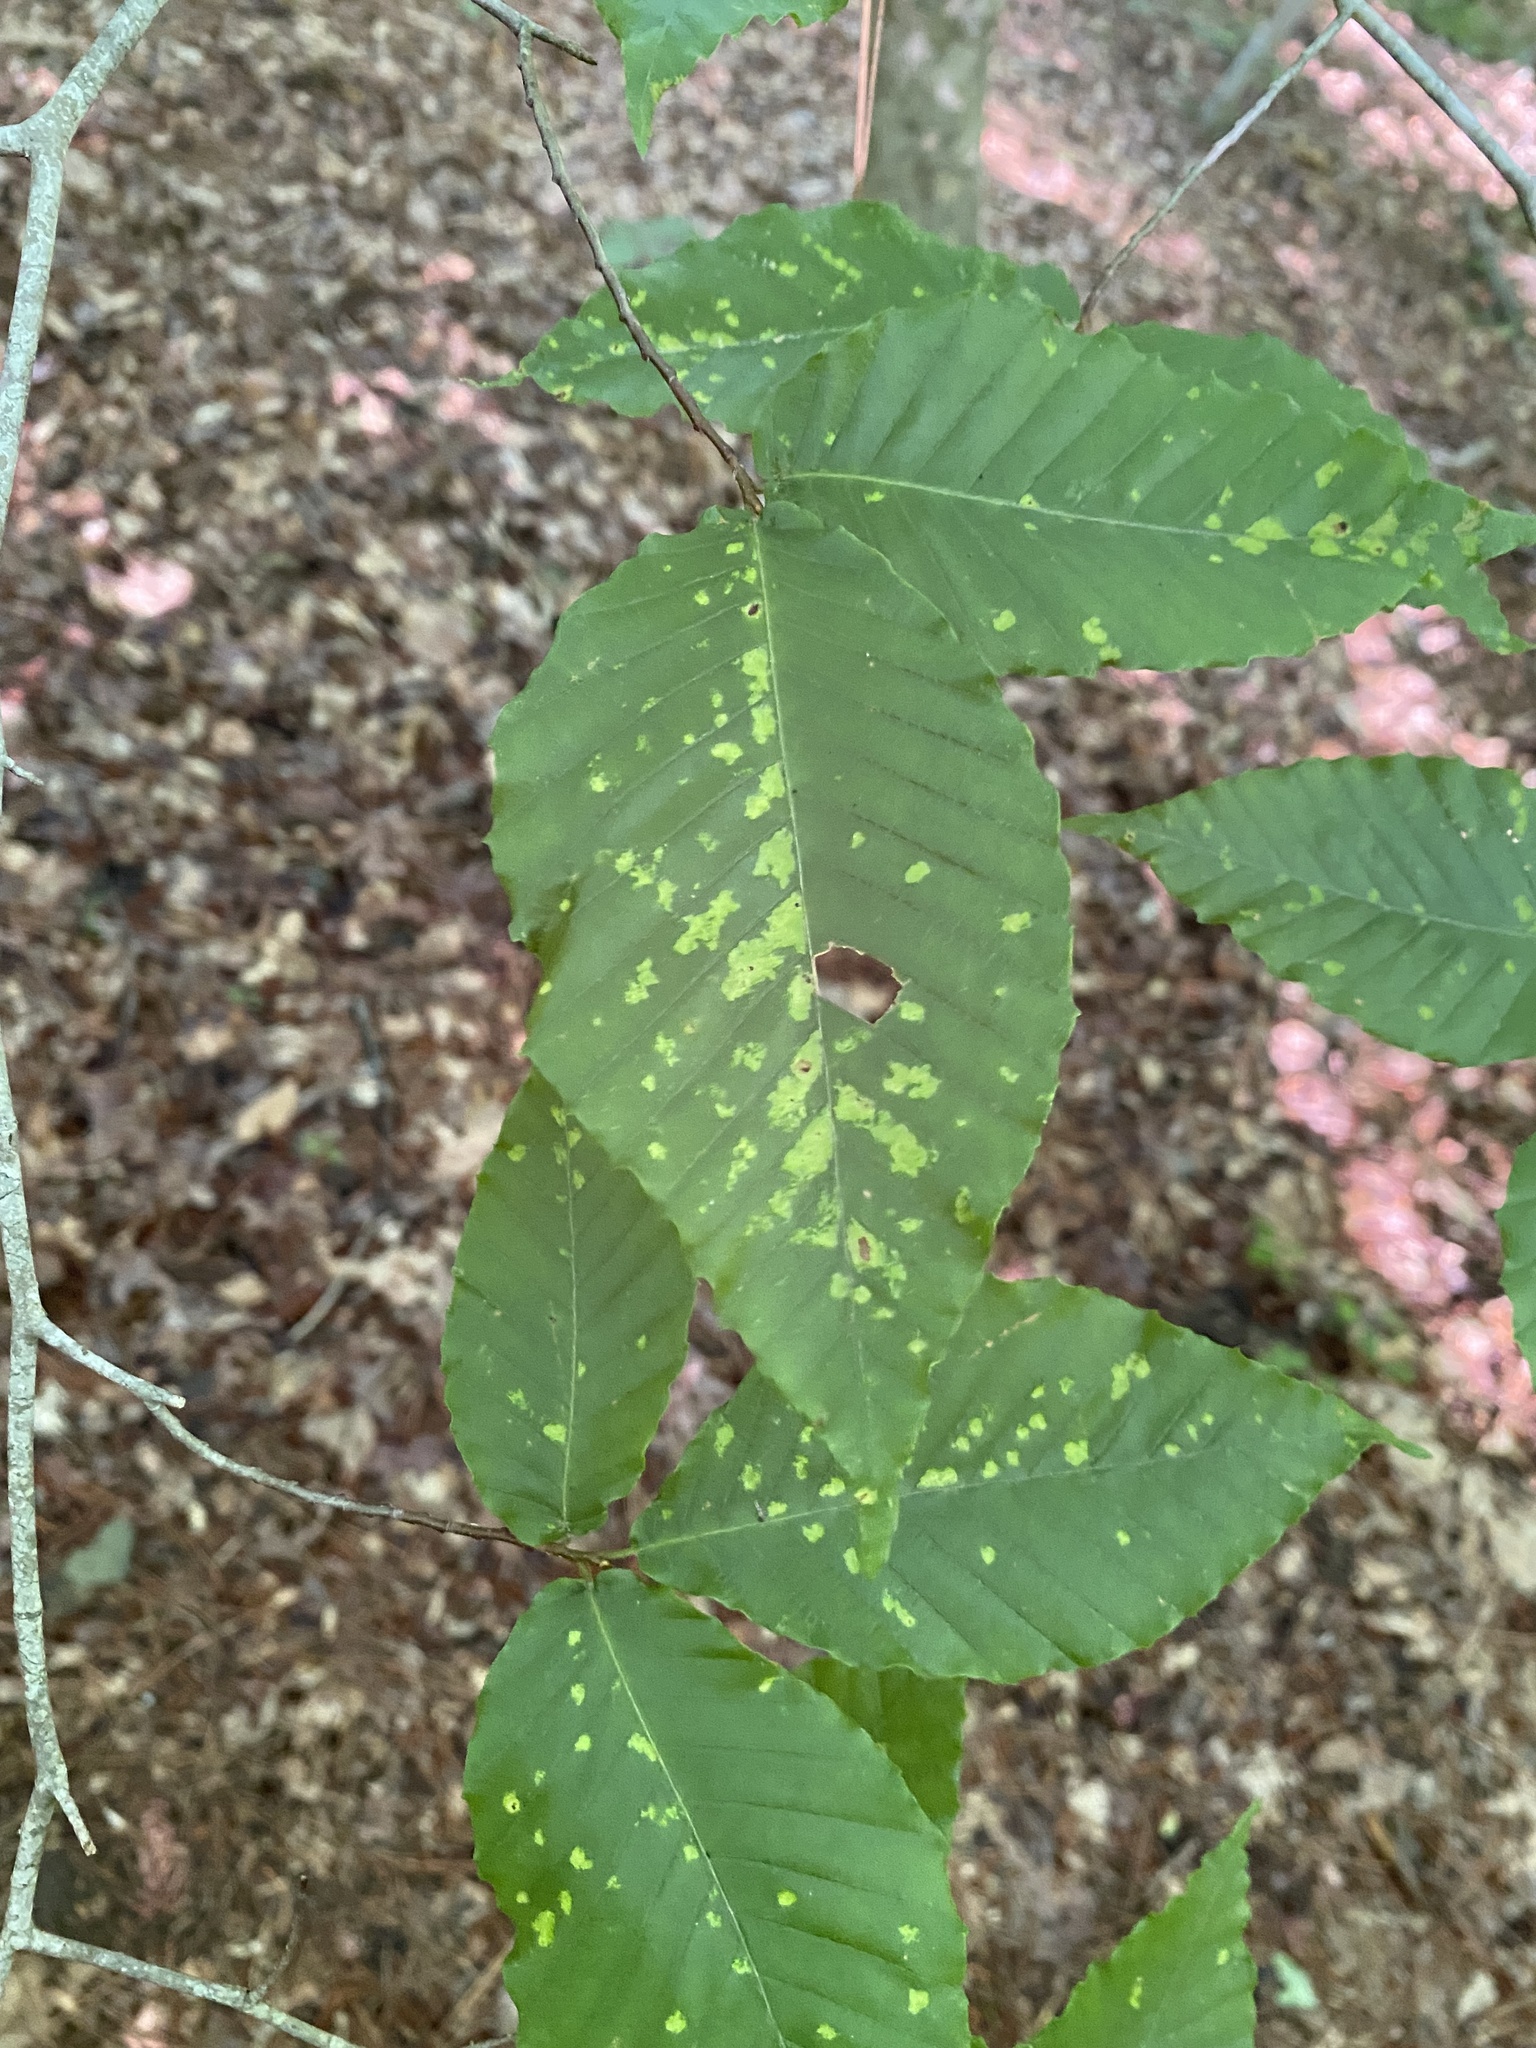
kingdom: Animalia
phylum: Arthropoda
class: Arachnida
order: Trombidiformes
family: Eriophyidae
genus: Acalitus
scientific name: Acalitus
